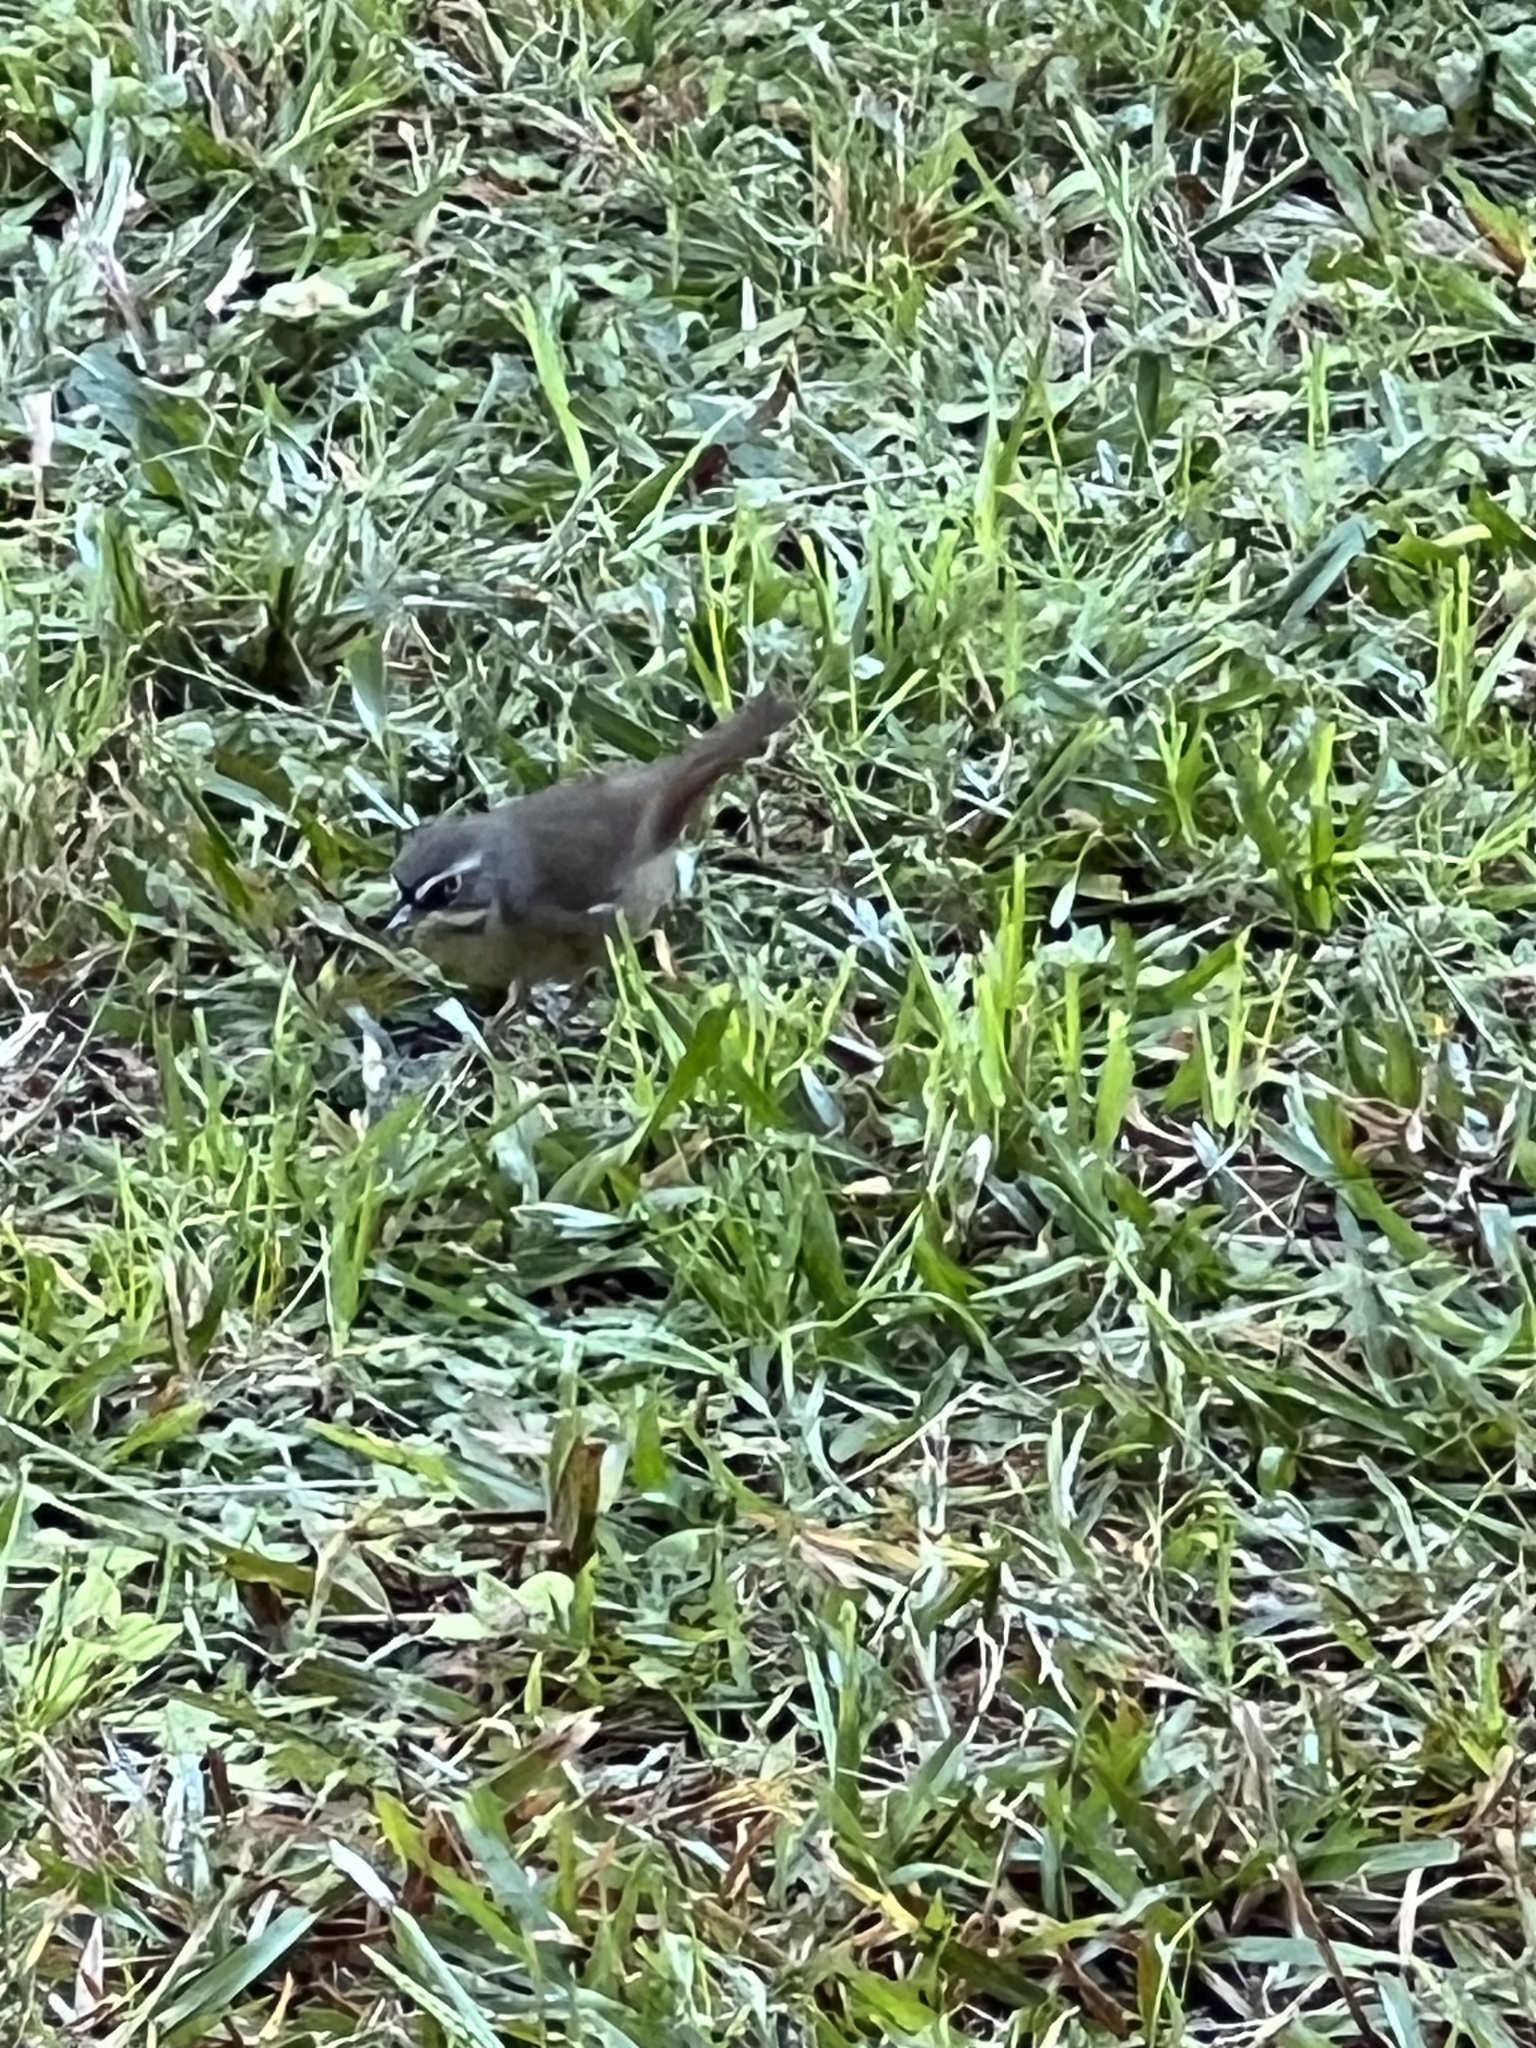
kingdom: Animalia
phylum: Chordata
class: Aves
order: Passeriformes
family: Acanthizidae
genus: Sericornis
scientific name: Sericornis frontalis
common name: White-browed scrubwren
